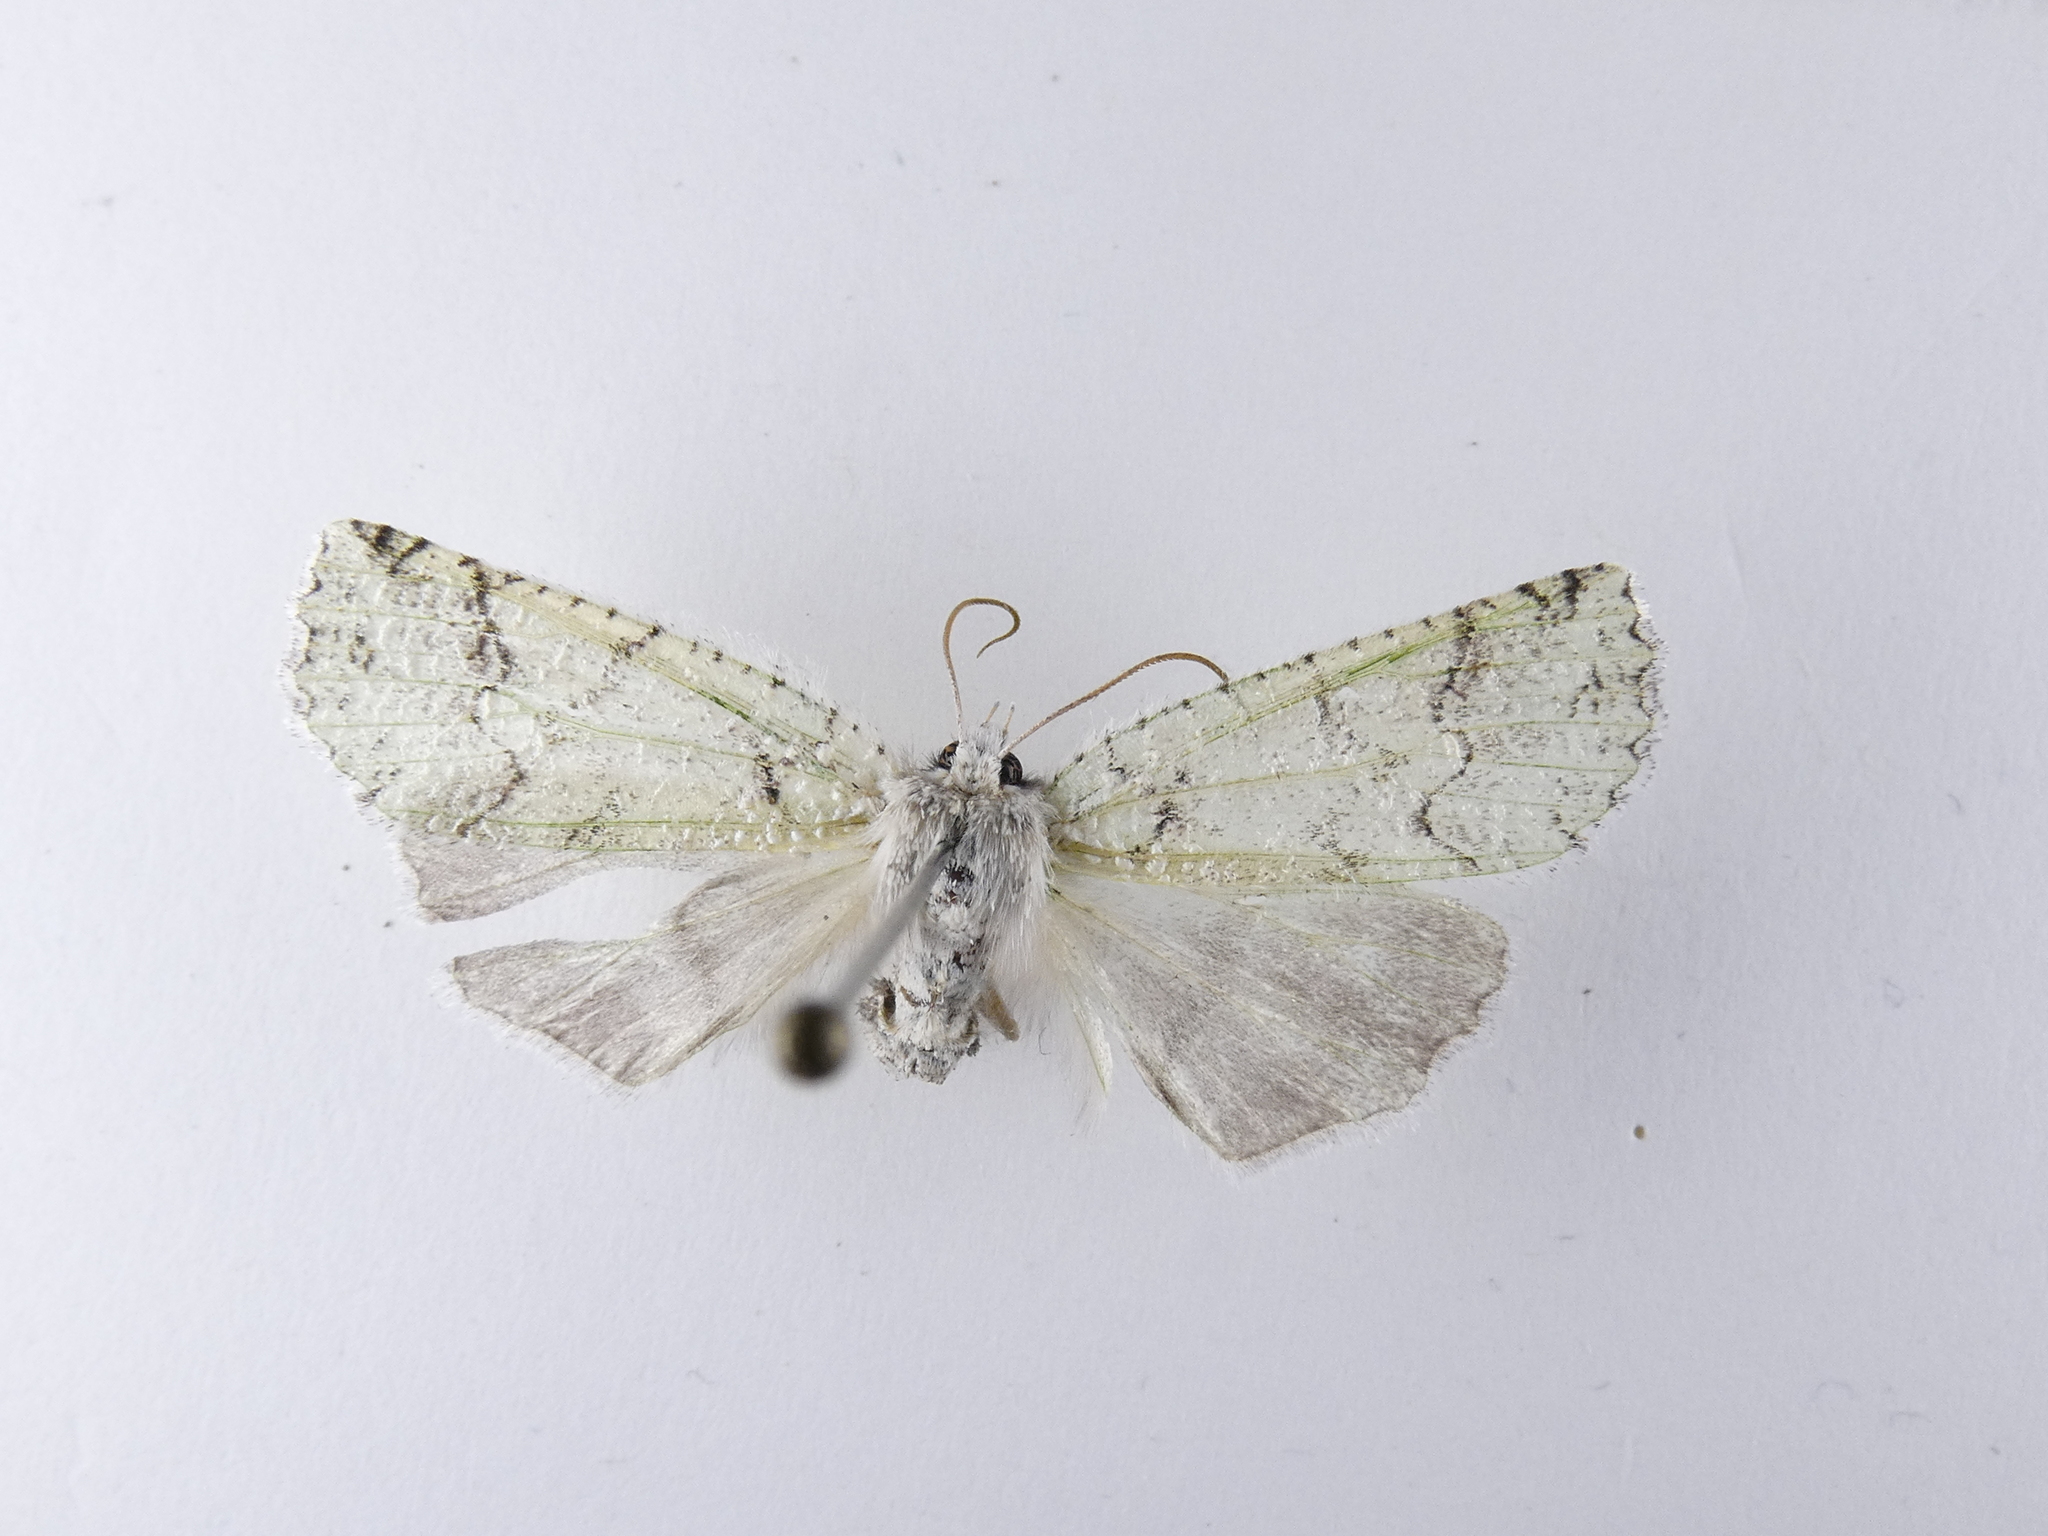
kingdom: Animalia
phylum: Arthropoda
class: Insecta
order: Lepidoptera
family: Geometridae
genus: Declana
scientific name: Declana floccosa
